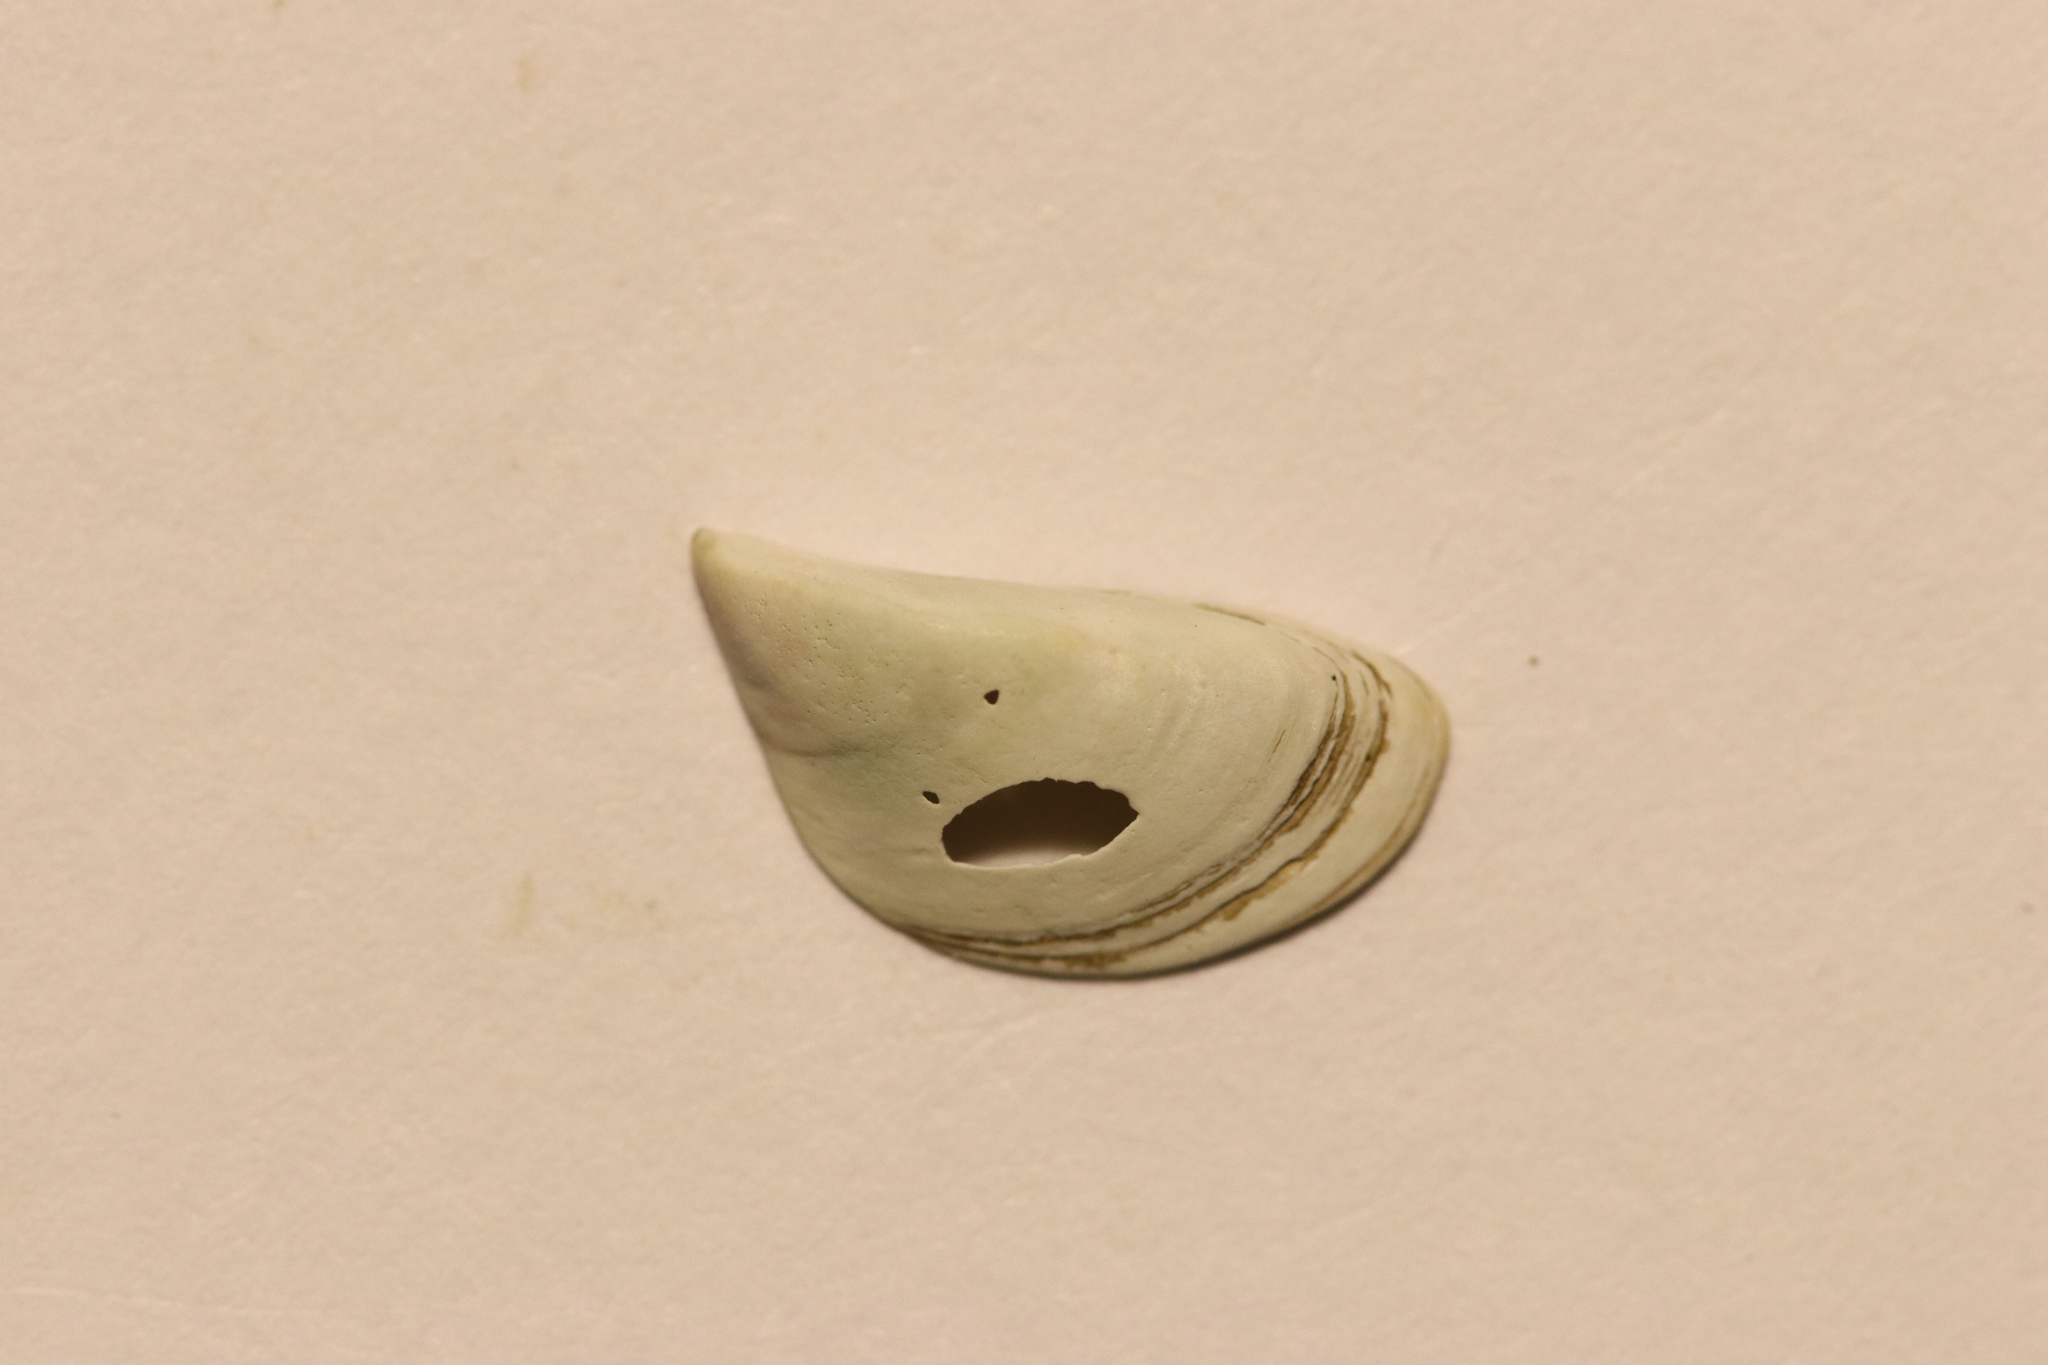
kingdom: Animalia
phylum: Mollusca
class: Bivalvia
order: Myida
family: Dreissenidae
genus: Dreissena
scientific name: Dreissena polymorpha
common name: Zebra mussel
